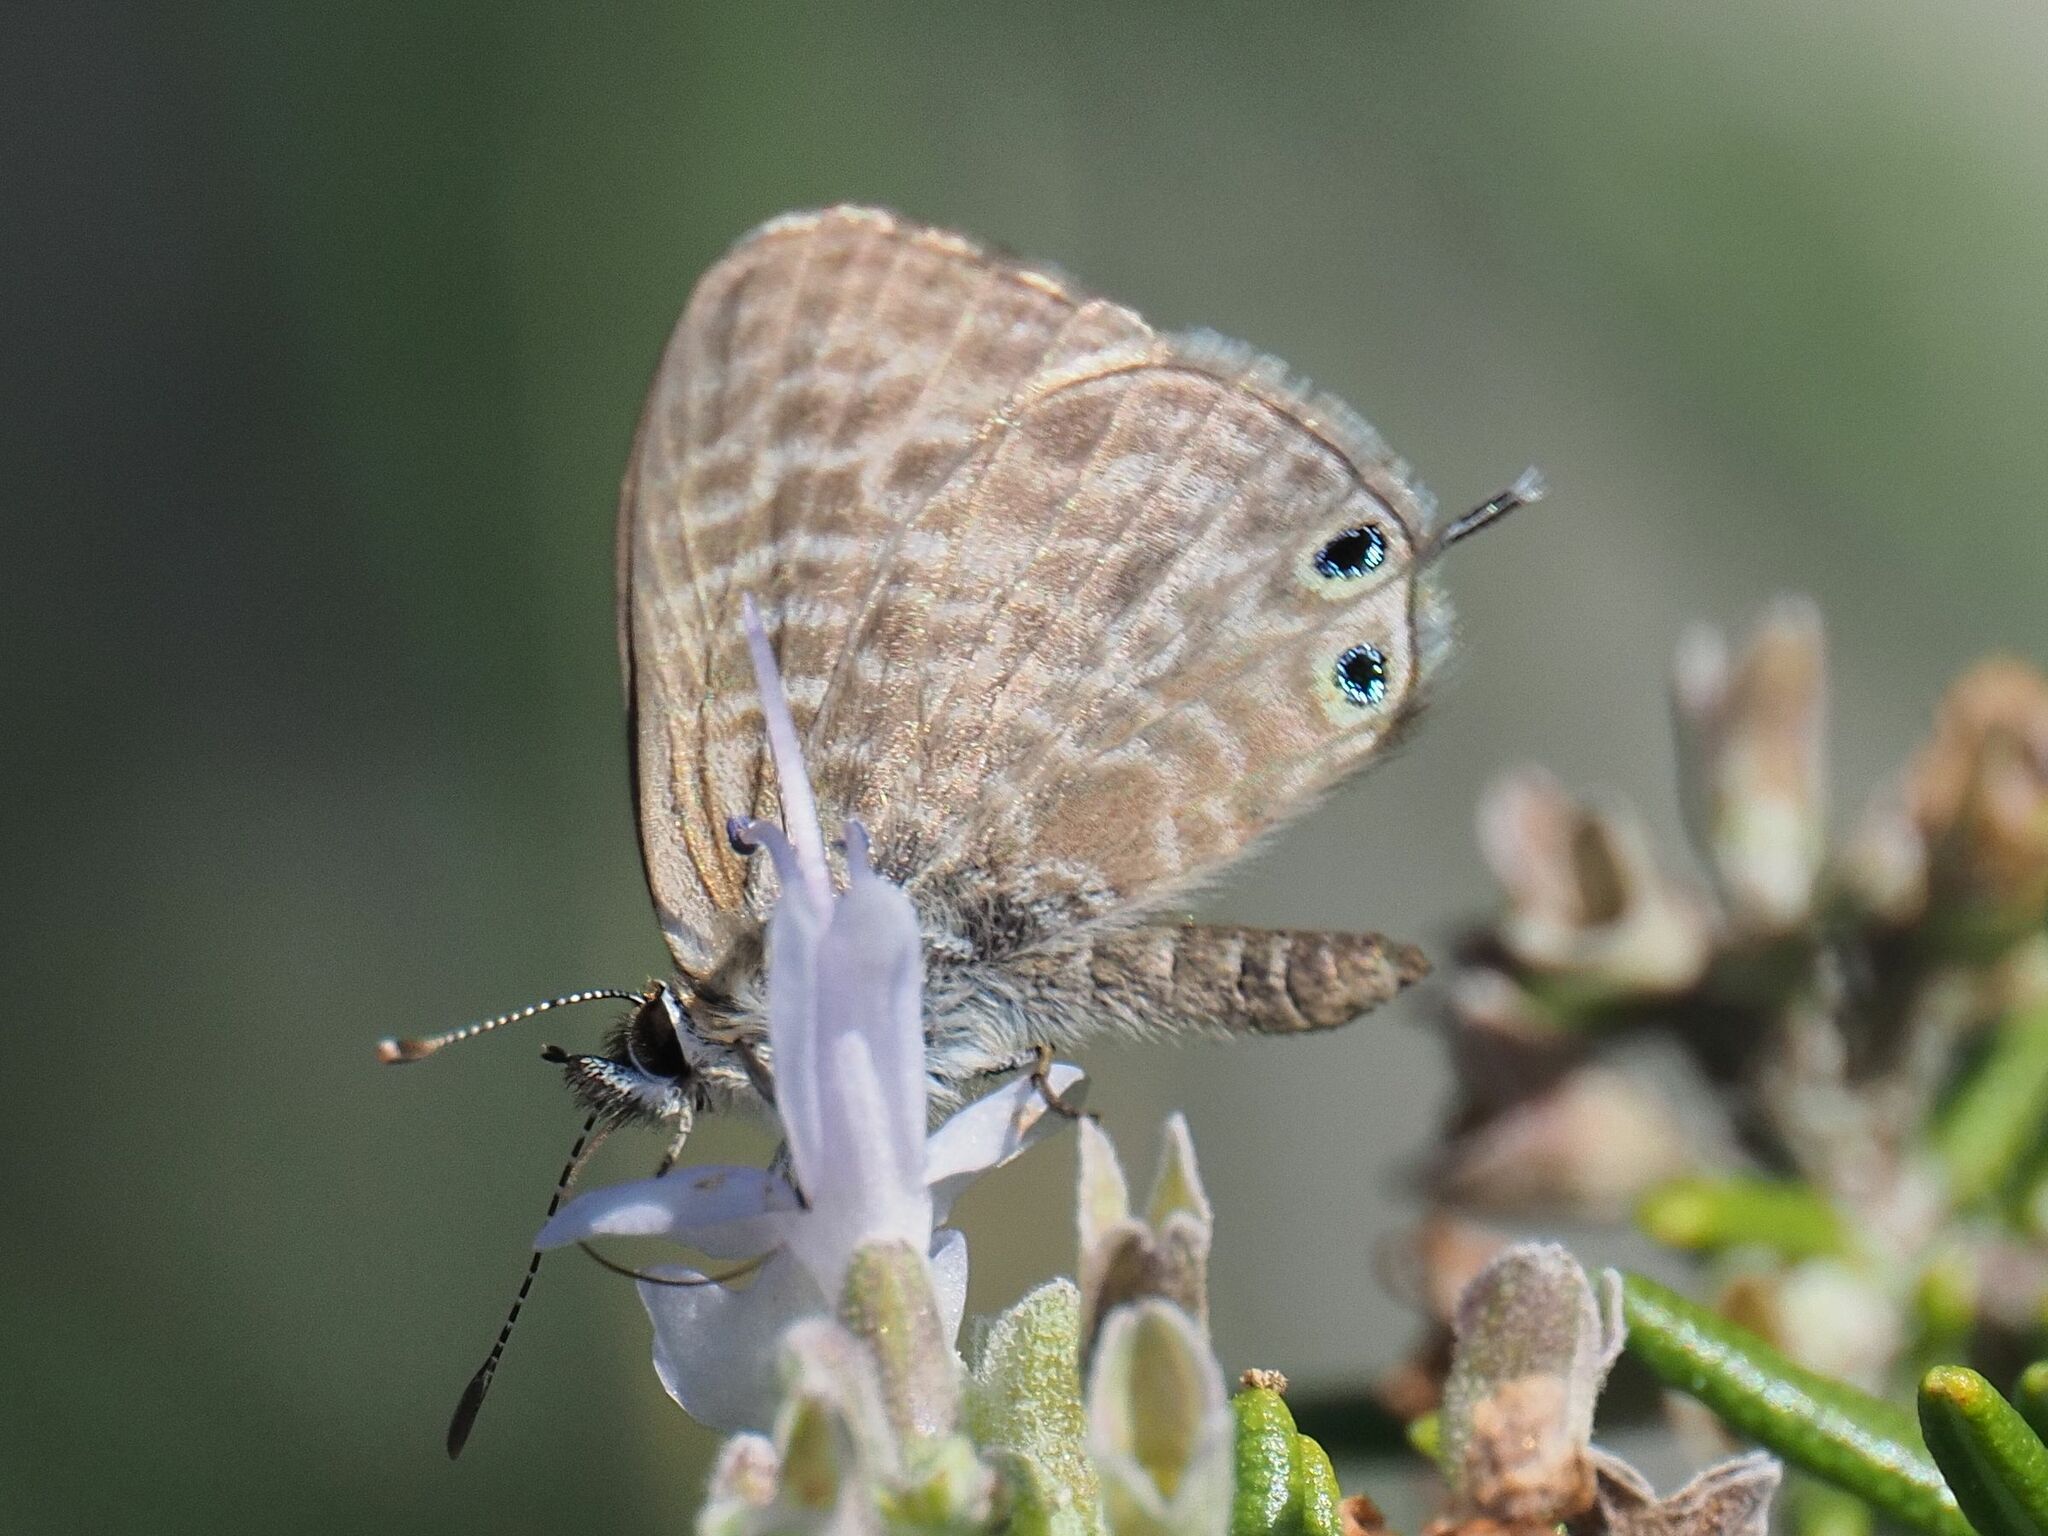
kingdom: Animalia
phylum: Arthropoda
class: Insecta
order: Lepidoptera
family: Lycaenidae
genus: Leptotes
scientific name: Leptotes pirithous
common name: Lang's short-tailed blue
